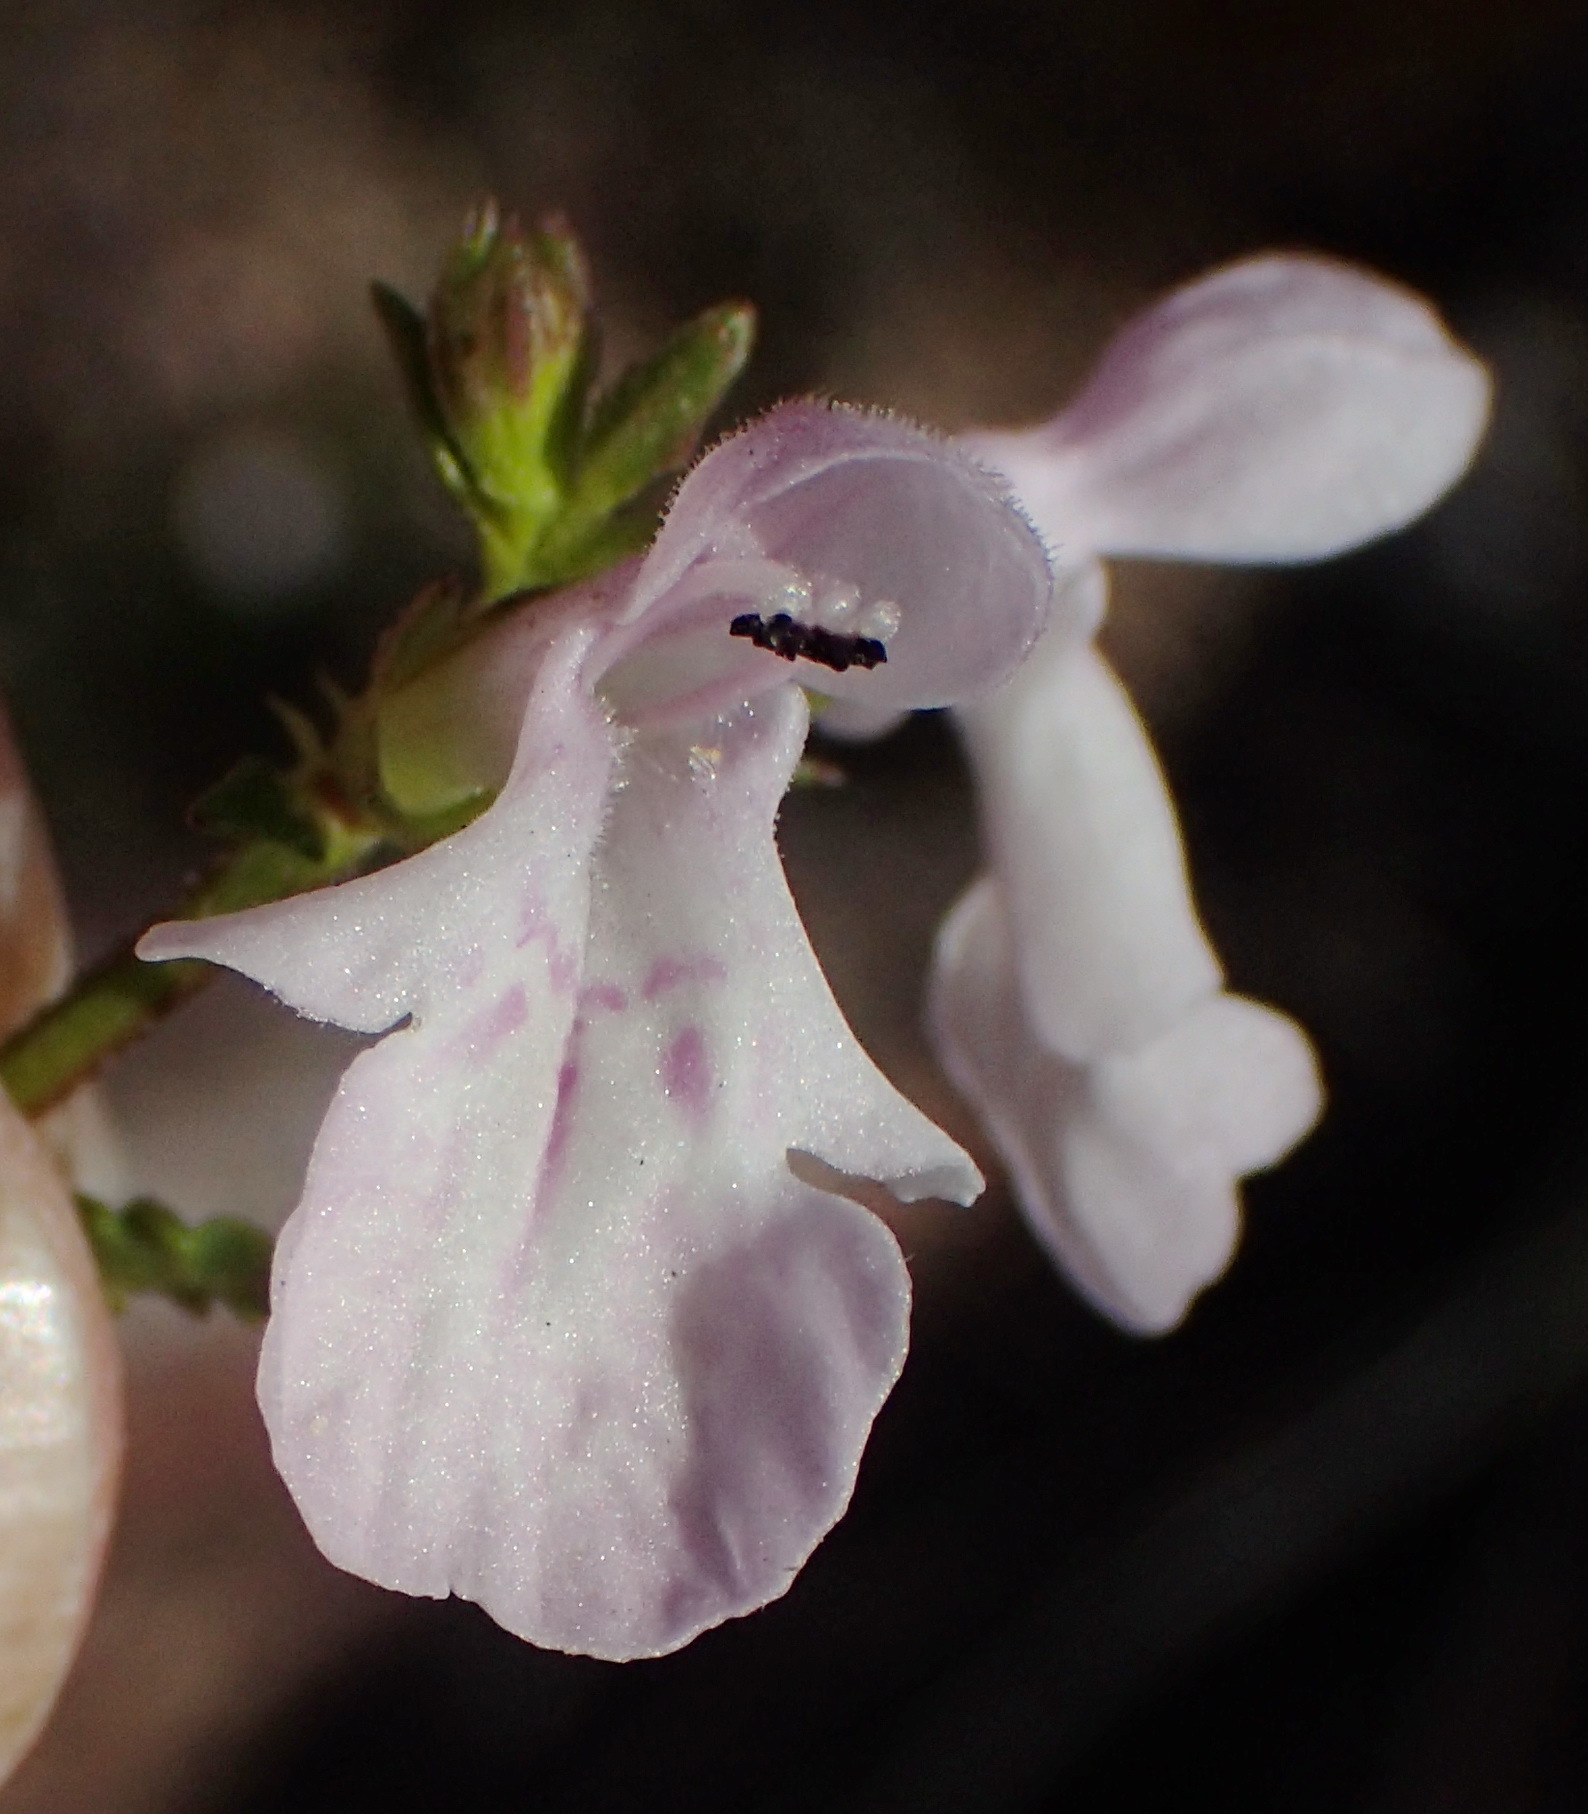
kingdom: Plantae
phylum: Tracheophyta
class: Magnoliopsida
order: Lamiales
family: Lamiaceae
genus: Stachys
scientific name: Stachys sublobata
